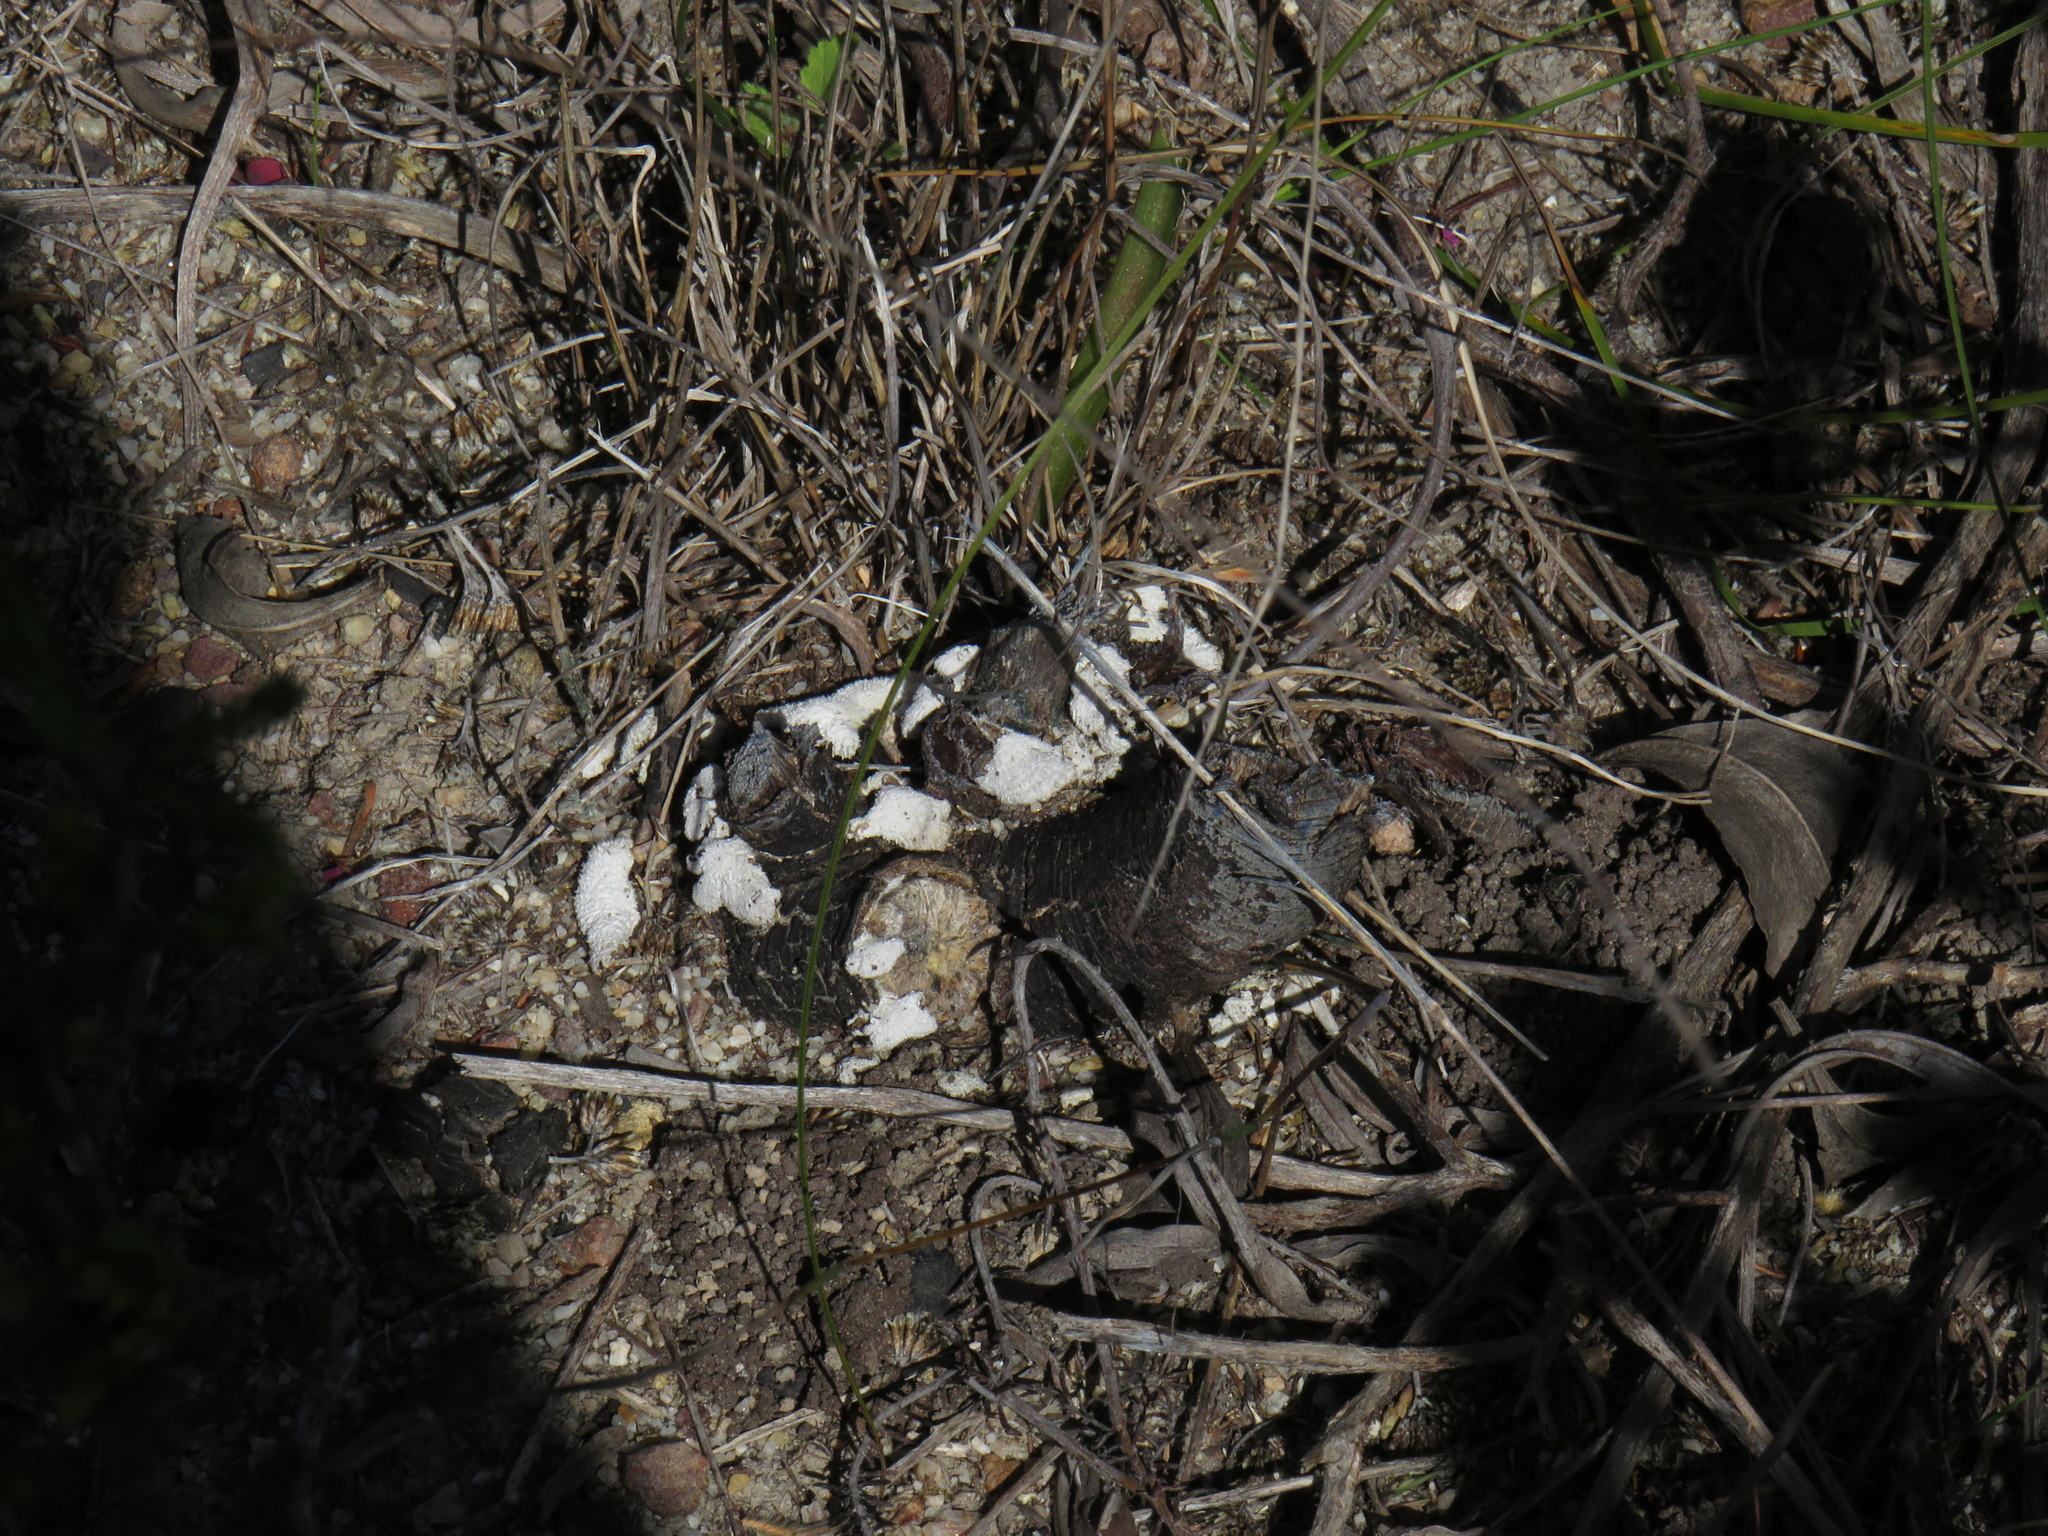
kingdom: Fungi
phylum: Basidiomycota
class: Agaricomycetes
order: Agaricales
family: Schizophyllaceae
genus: Schizophyllum
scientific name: Schizophyllum commune
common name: Common porecrust
